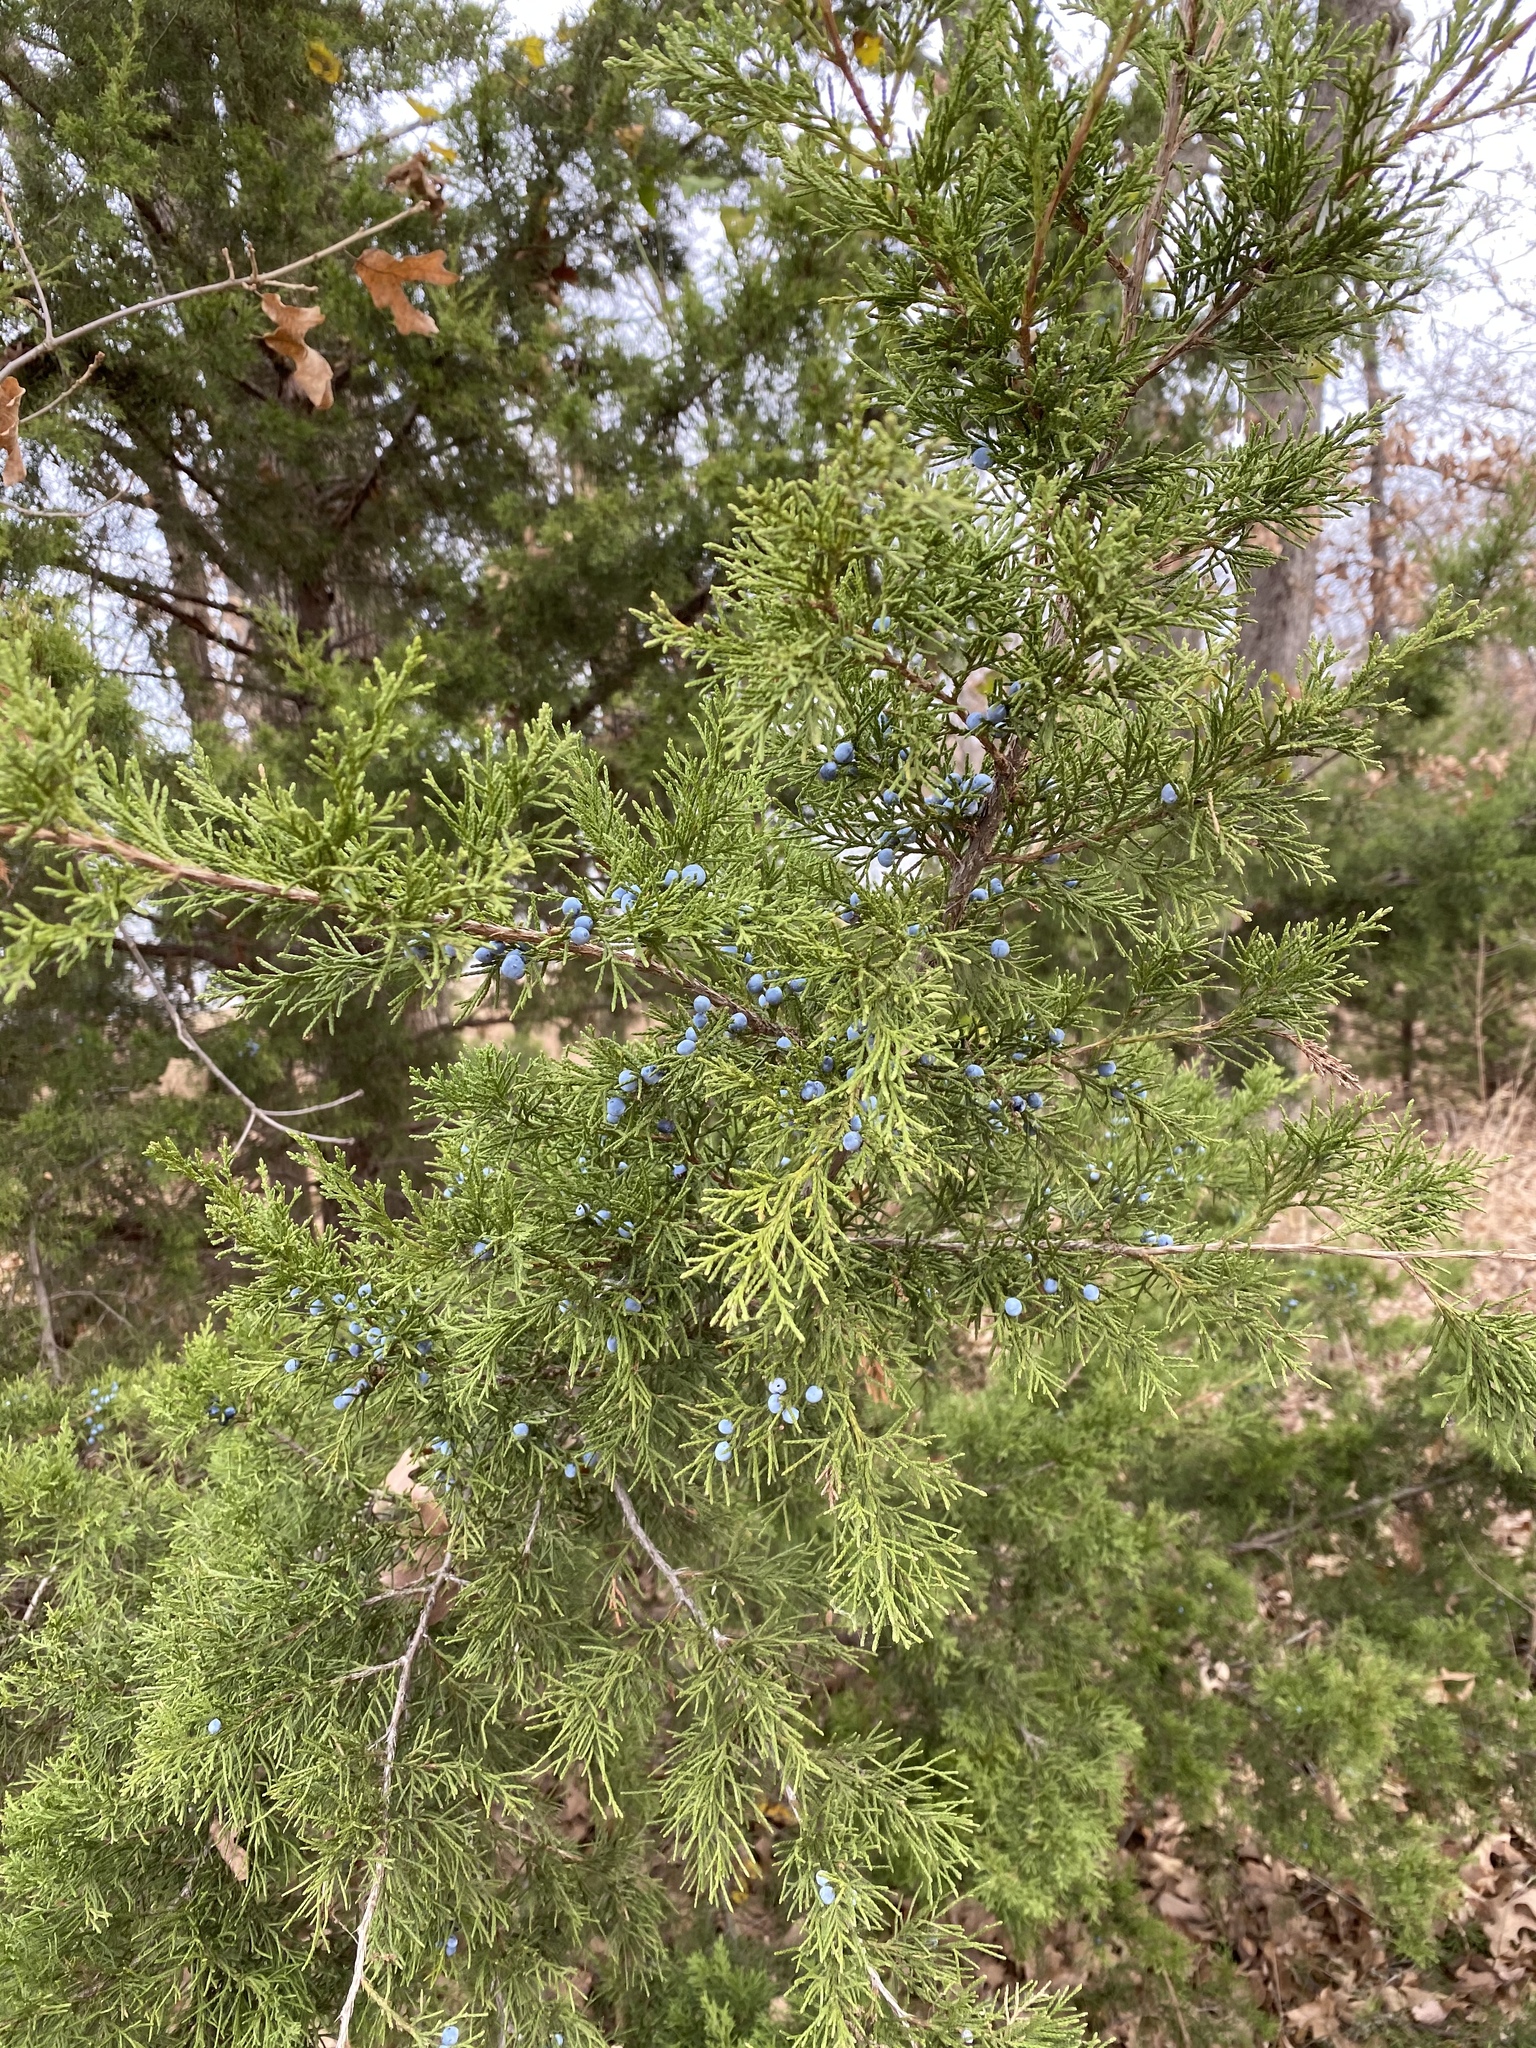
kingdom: Plantae
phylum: Tracheophyta
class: Pinopsida
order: Pinales
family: Cupressaceae
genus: Juniperus
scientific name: Juniperus virginiana
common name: Red juniper
